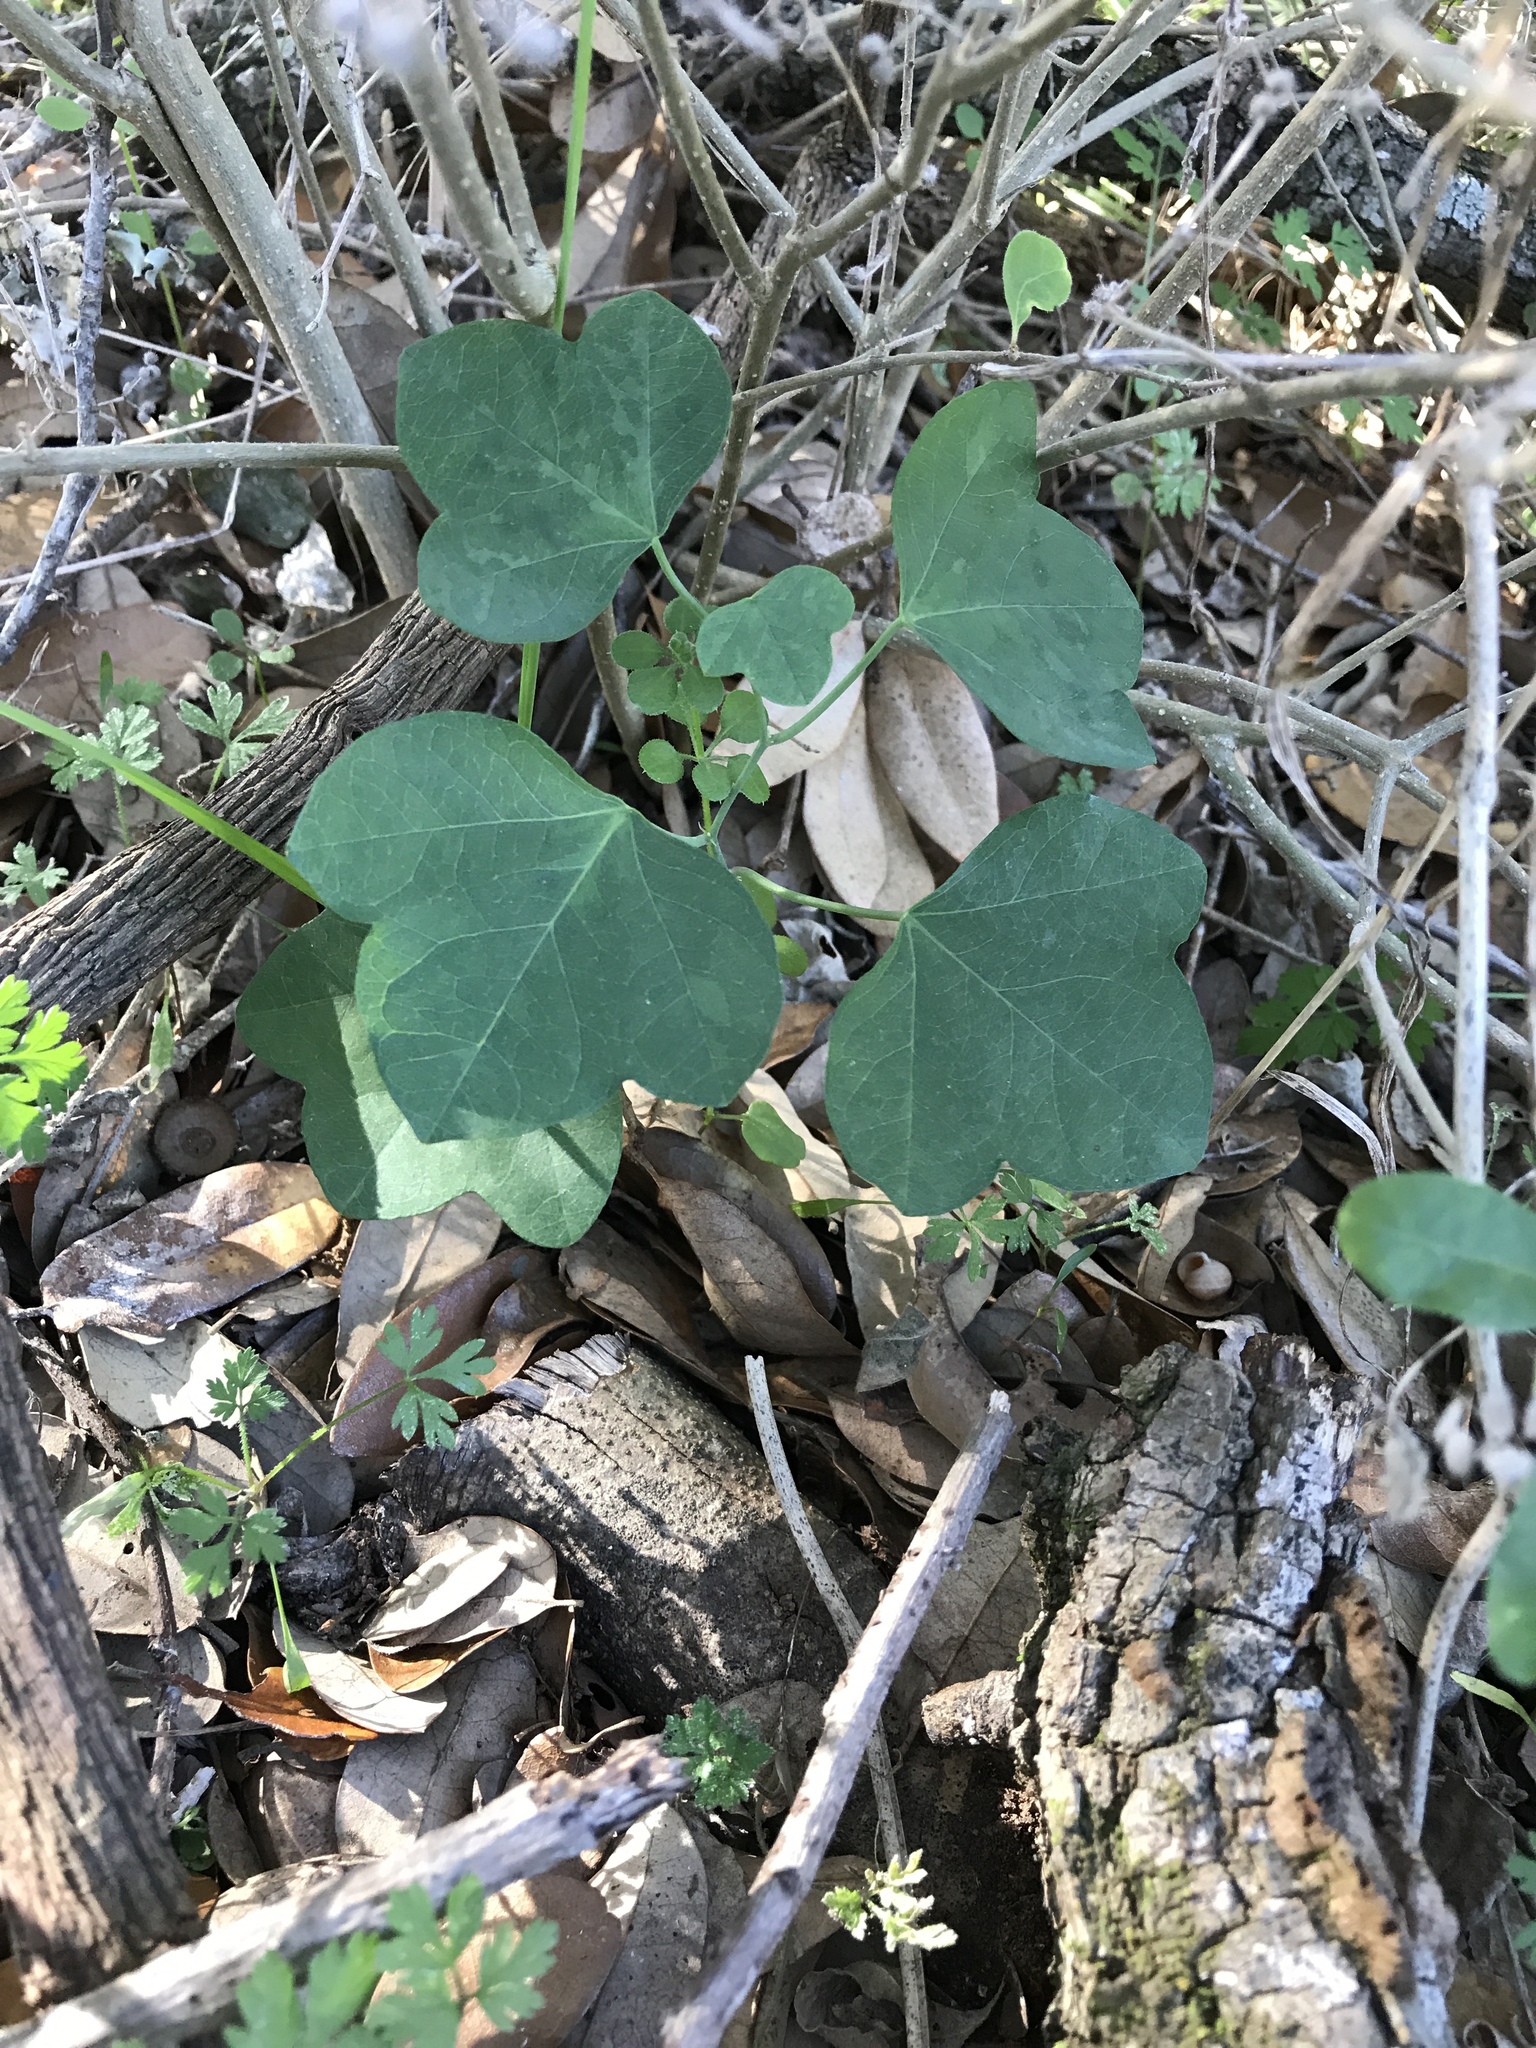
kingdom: Plantae
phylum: Tracheophyta
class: Magnoliopsida
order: Malpighiales
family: Passifloraceae
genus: Passiflora
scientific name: Passiflora lutea
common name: Yellow passionflower
